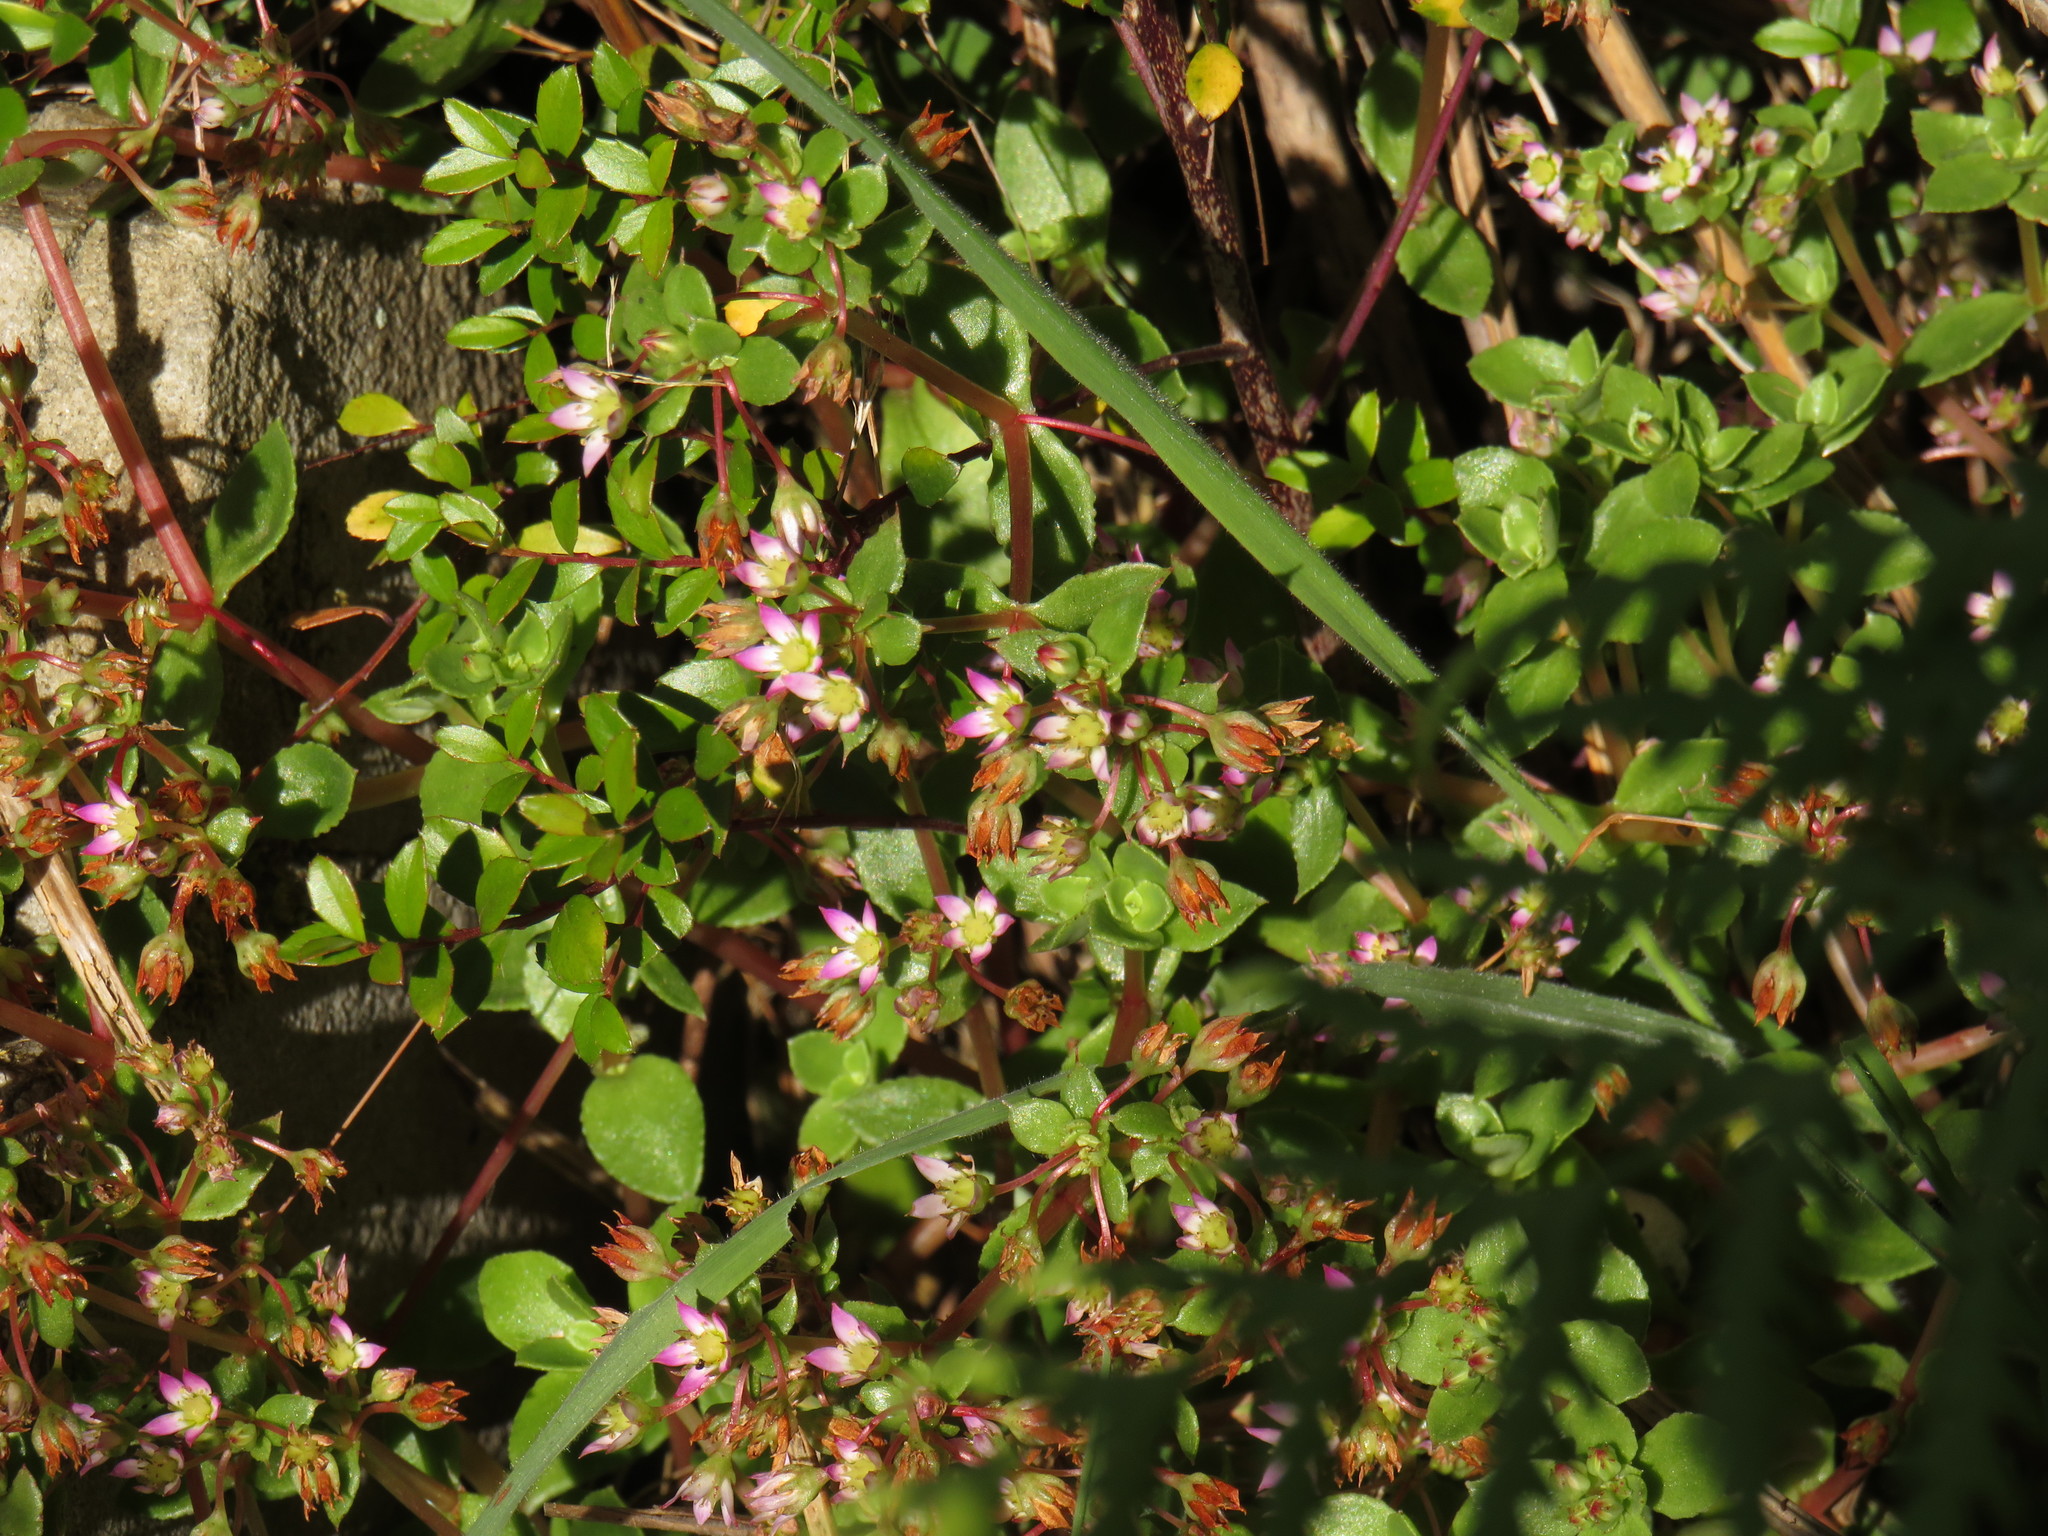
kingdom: Plantae
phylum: Tracheophyta
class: Magnoliopsida
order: Saxifragales
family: Crassulaceae
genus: Crassula
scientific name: Crassula pellucida
